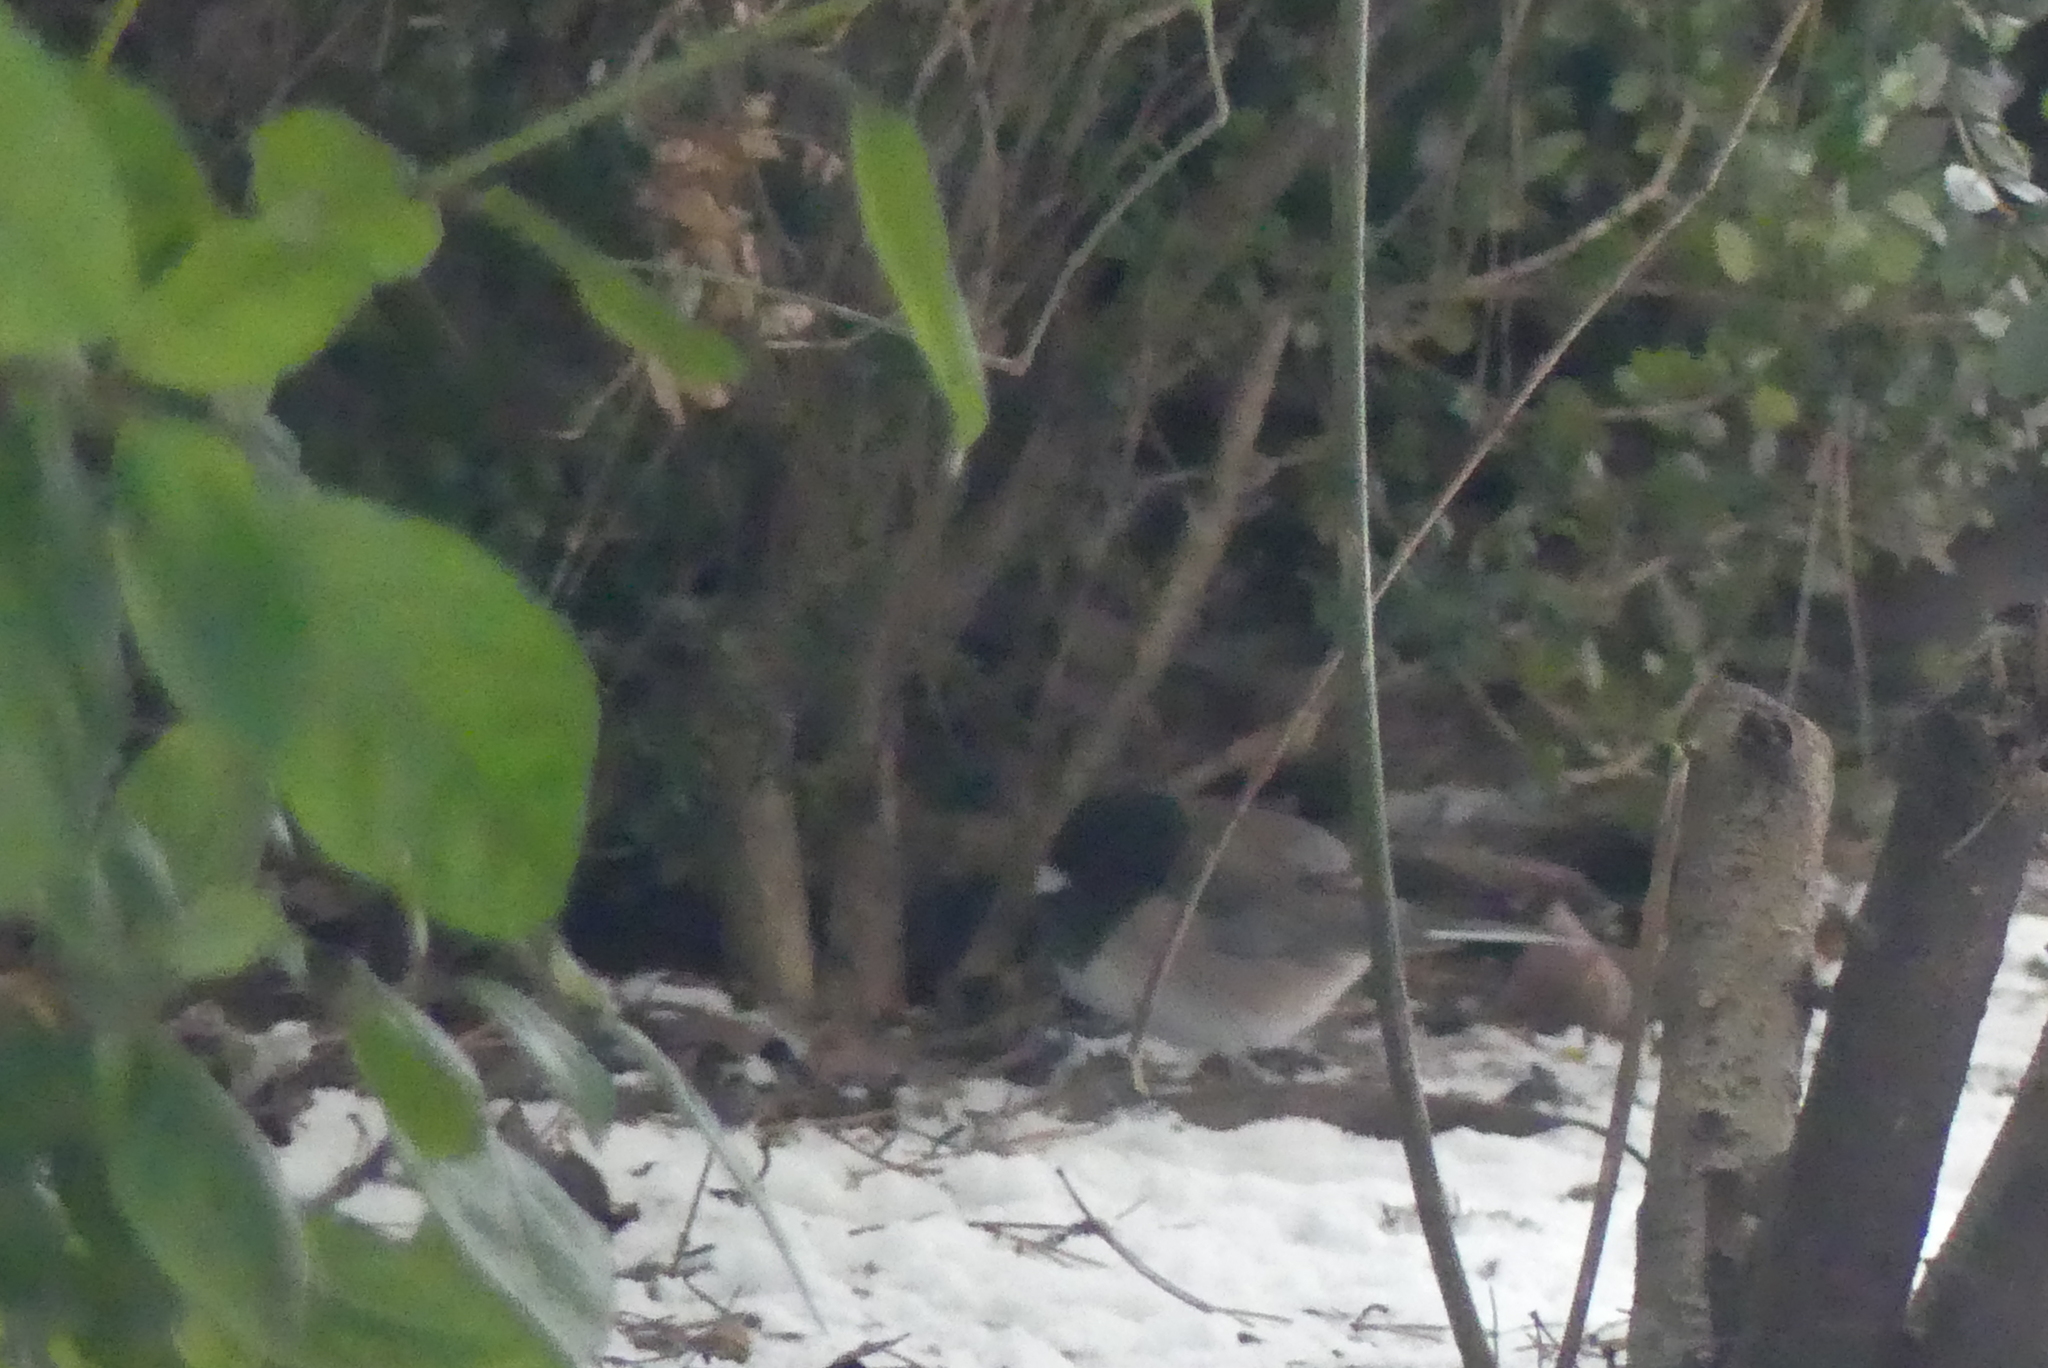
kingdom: Animalia
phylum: Chordata
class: Aves
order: Passeriformes
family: Passerellidae
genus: Junco
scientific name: Junco hyemalis
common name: Dark-eyed junco
